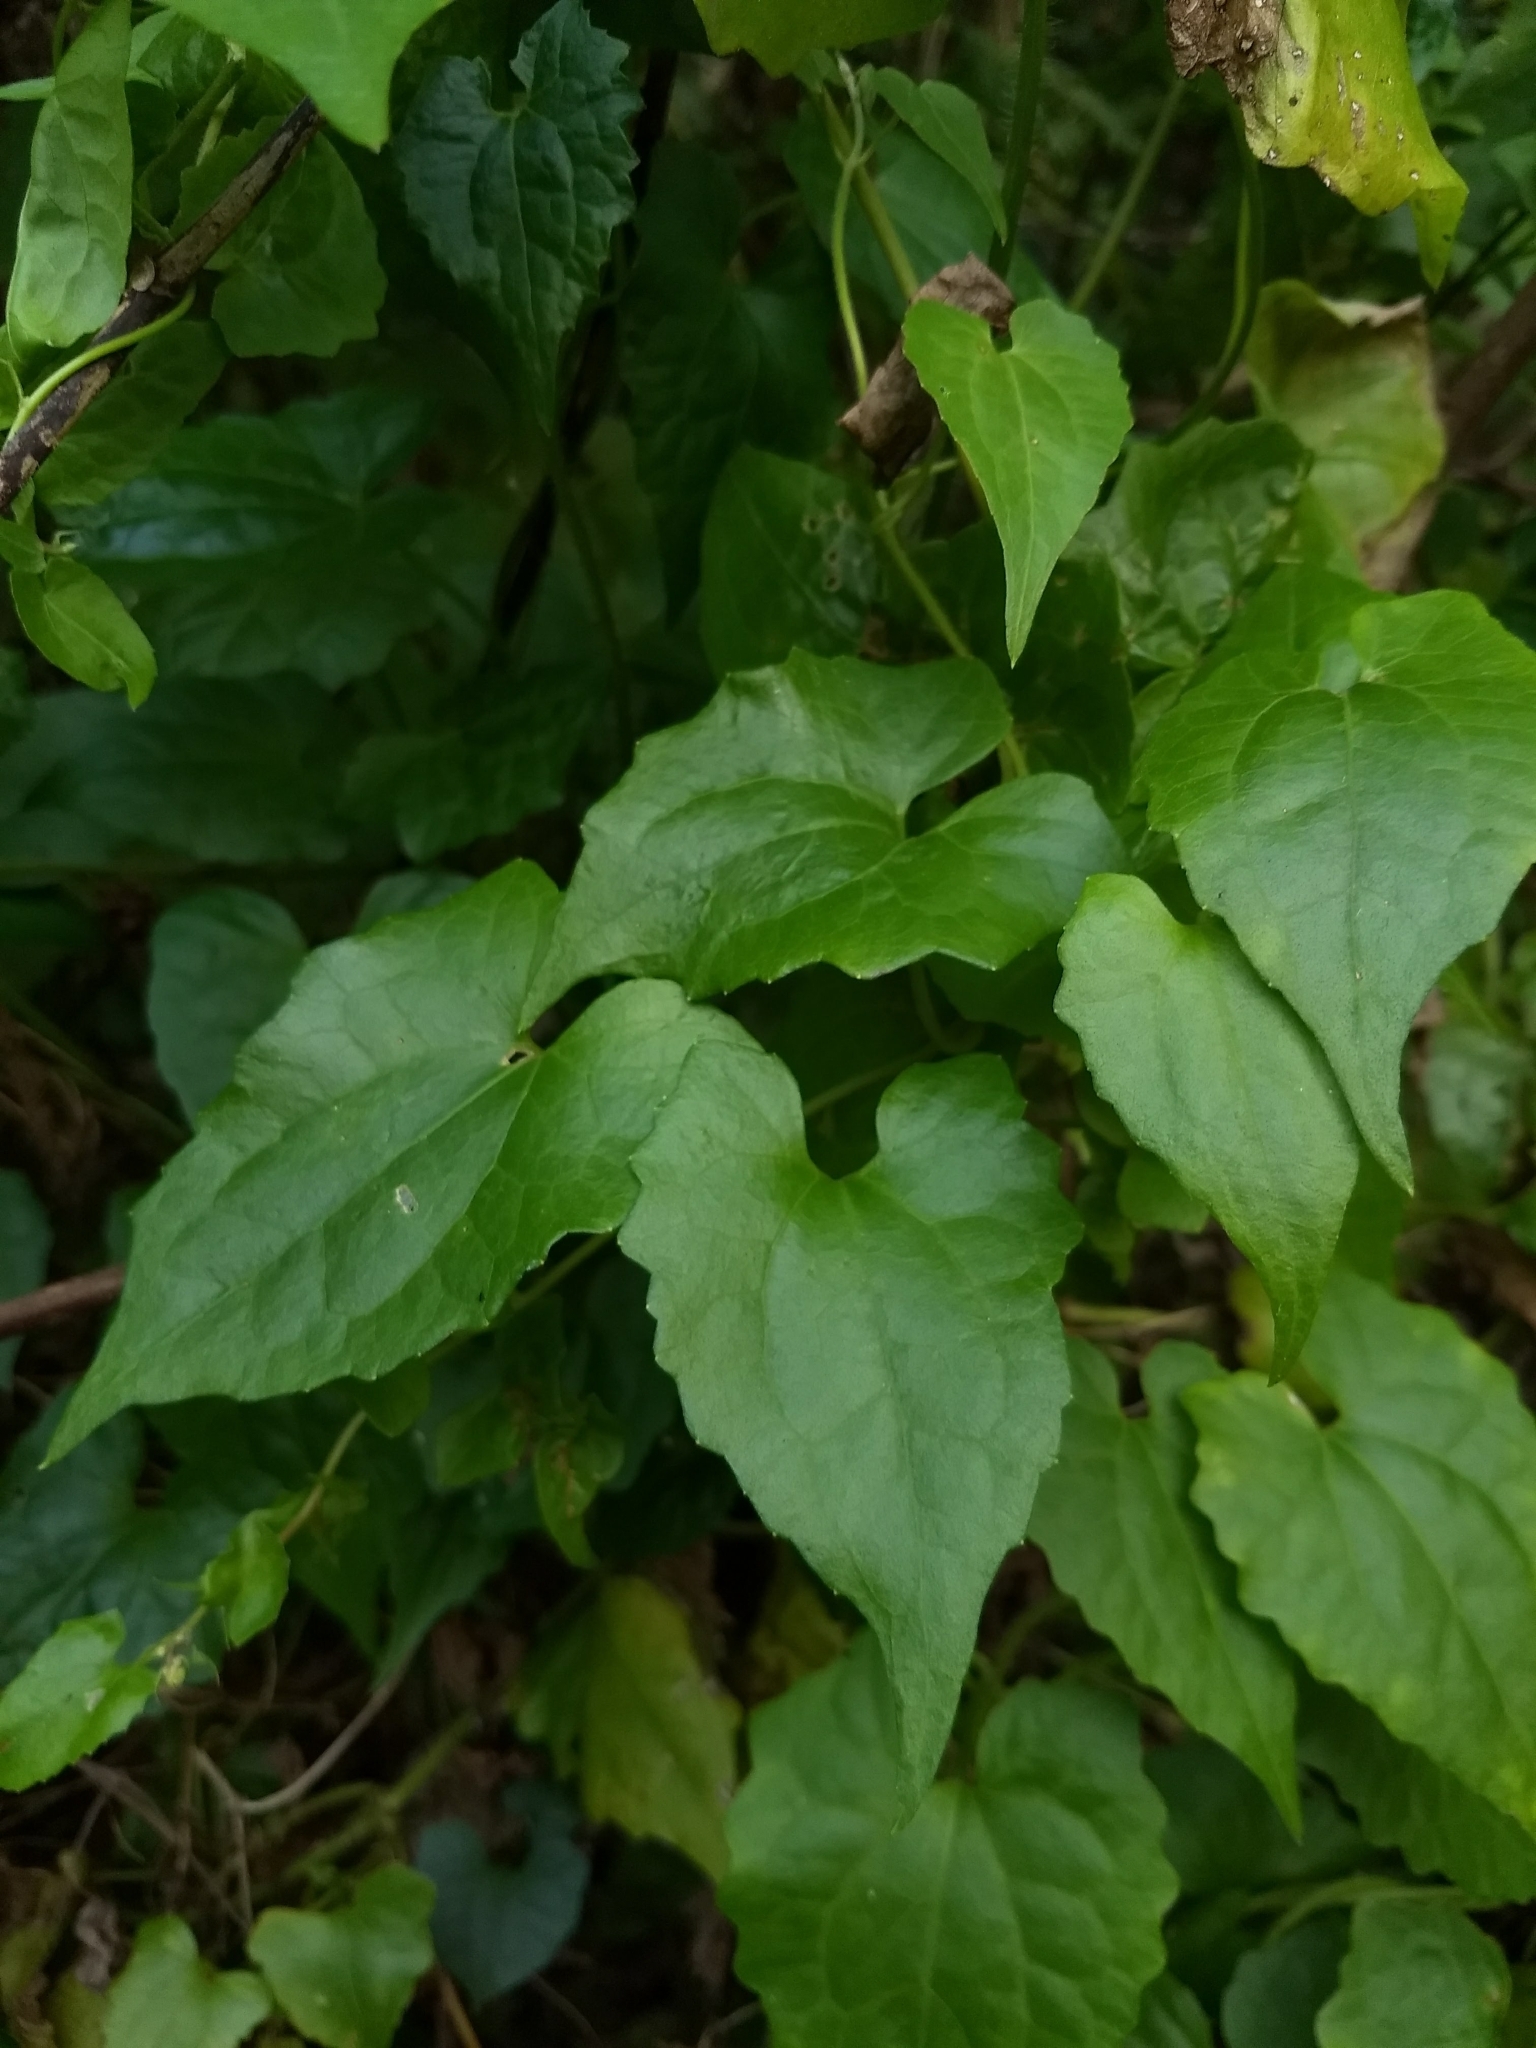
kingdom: Plantae
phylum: Tracheophyta
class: Magnoliopsida
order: Asterales
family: Asteraceae
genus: Mikania
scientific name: Mikania micrantha
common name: Mile-a-minute
